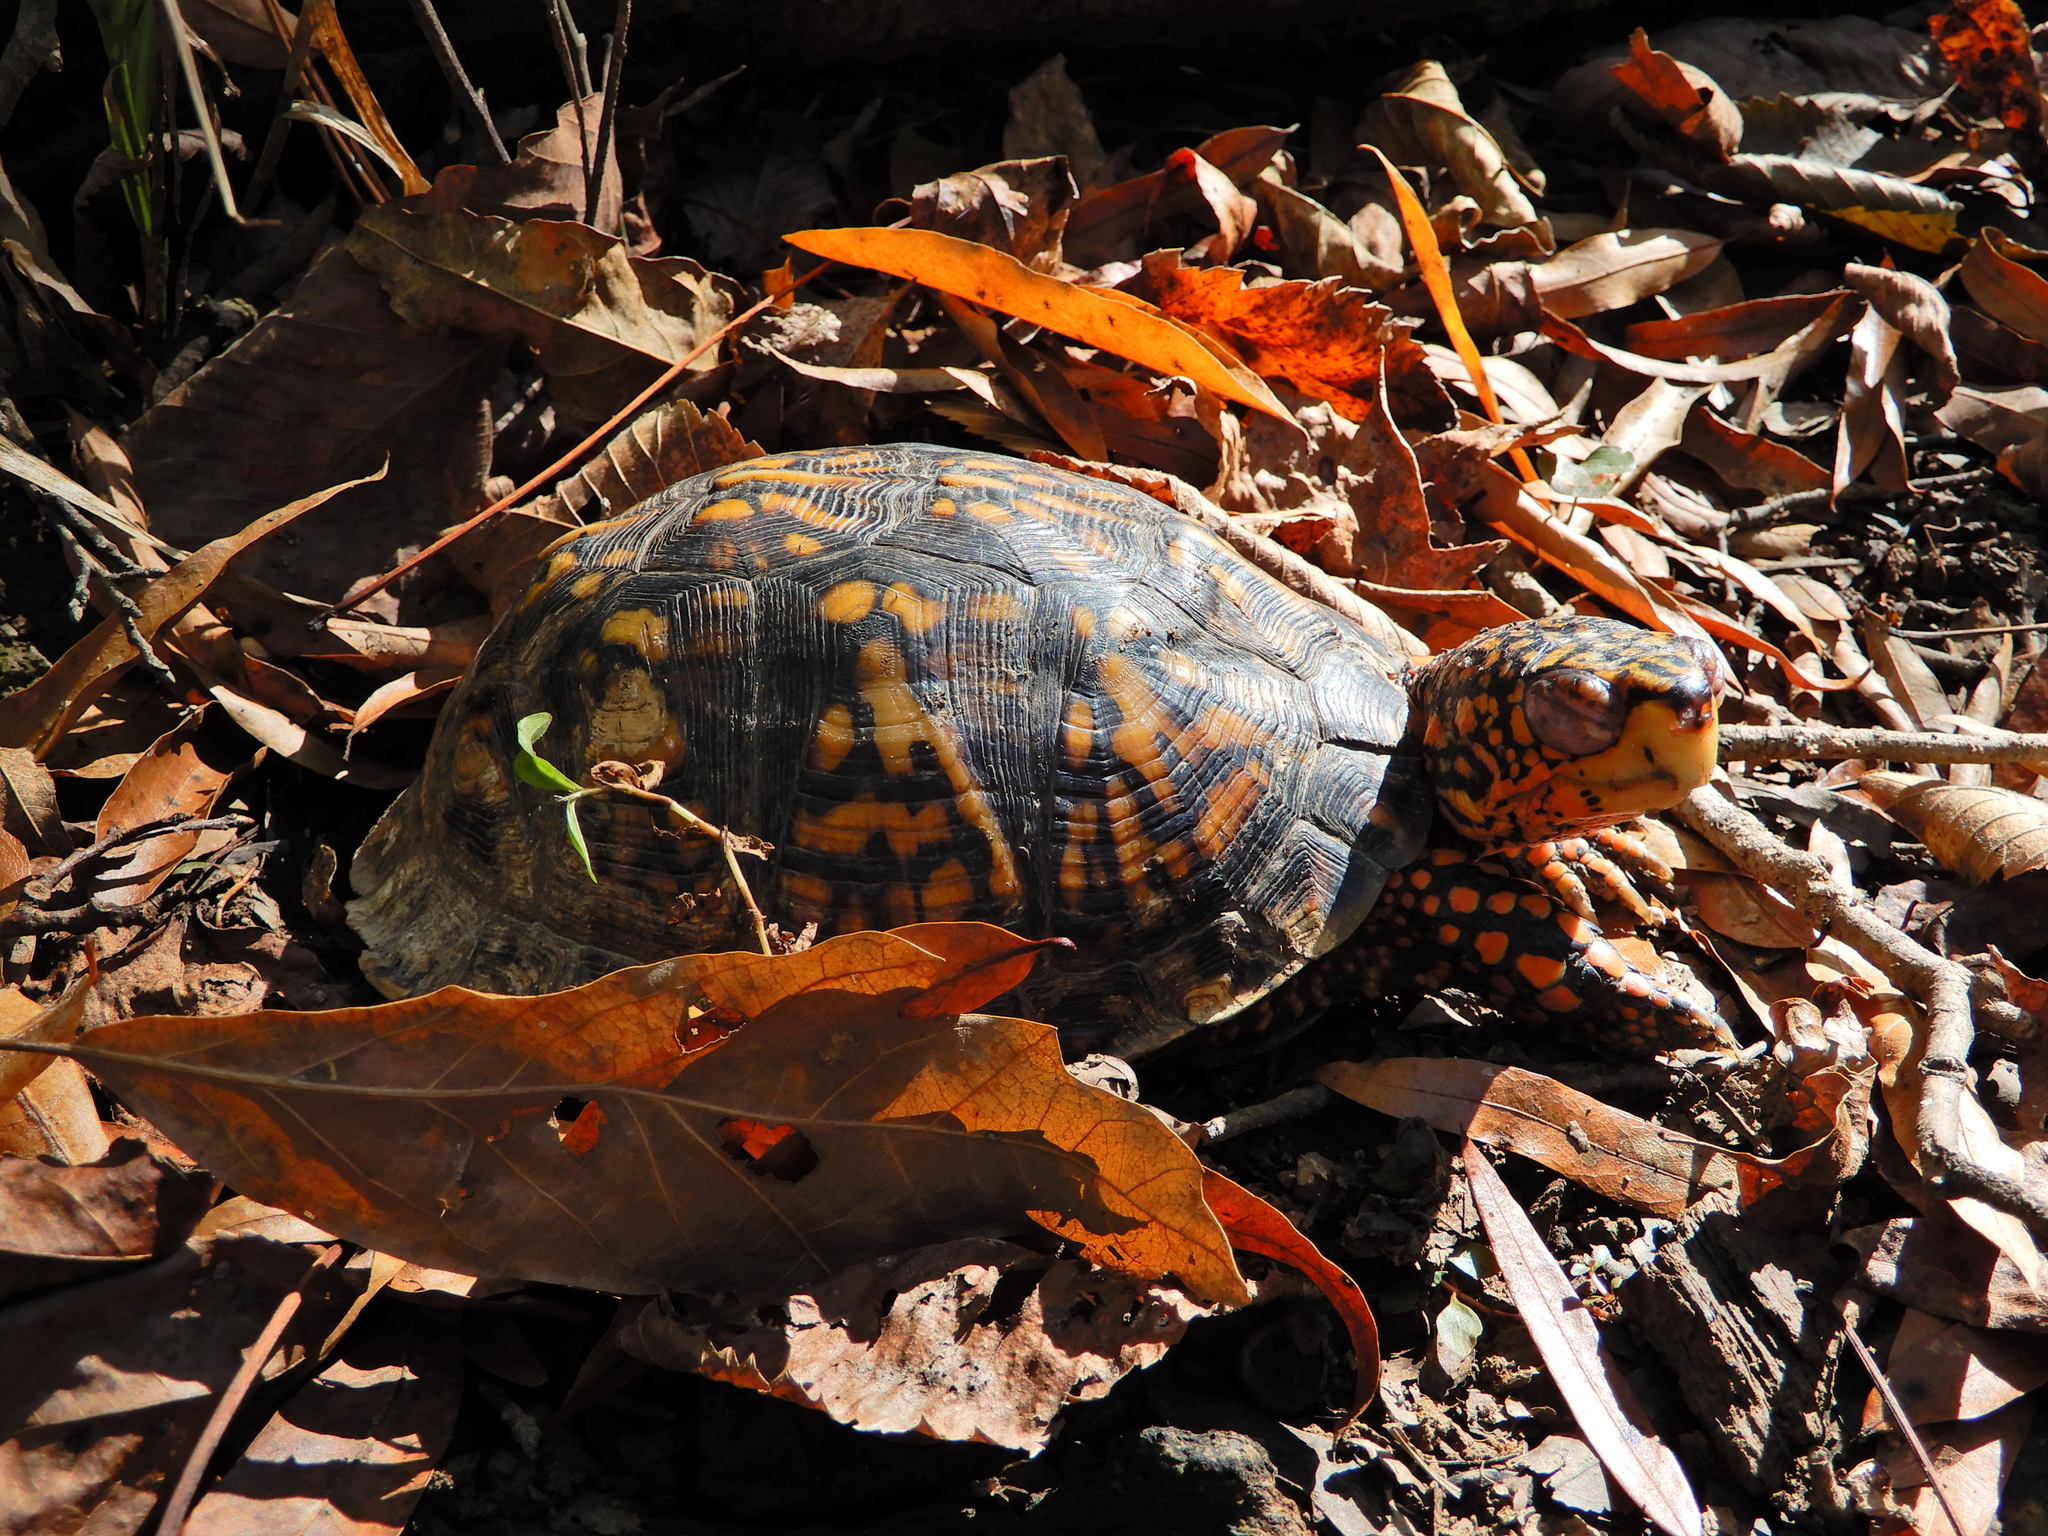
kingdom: Animalia
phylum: Chordata
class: Testudines
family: Emydidae
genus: Terrapene
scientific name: Terrapene carolina
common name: Common box turtle
